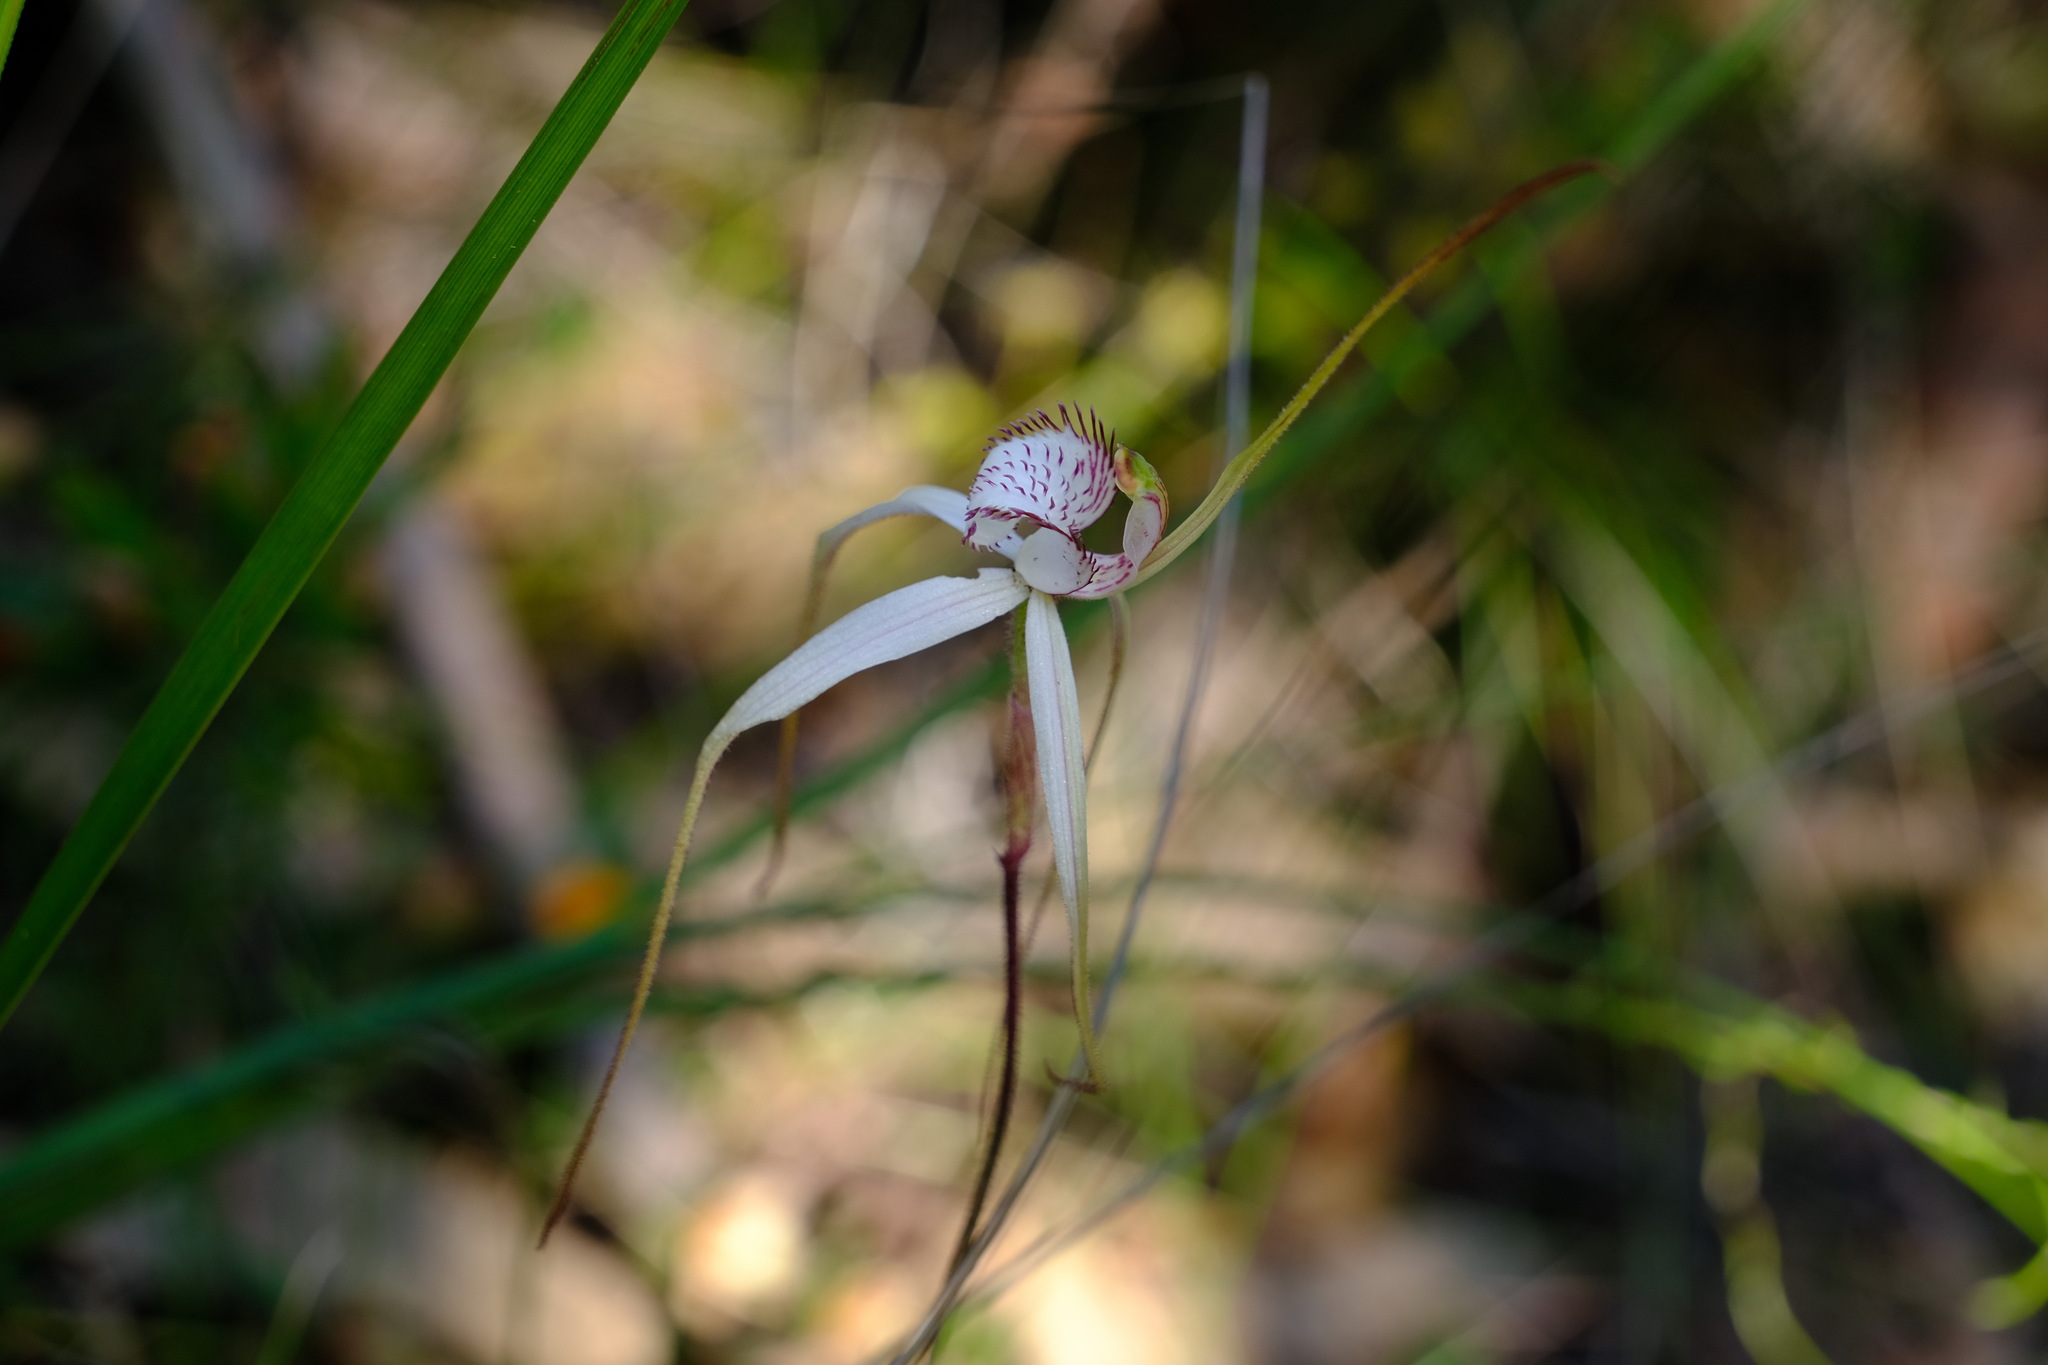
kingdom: Plantae
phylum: Tracheophyta
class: Liliopsida
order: Asparagales
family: Orchidaceae
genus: Caladenia
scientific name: Caladenia venusta
